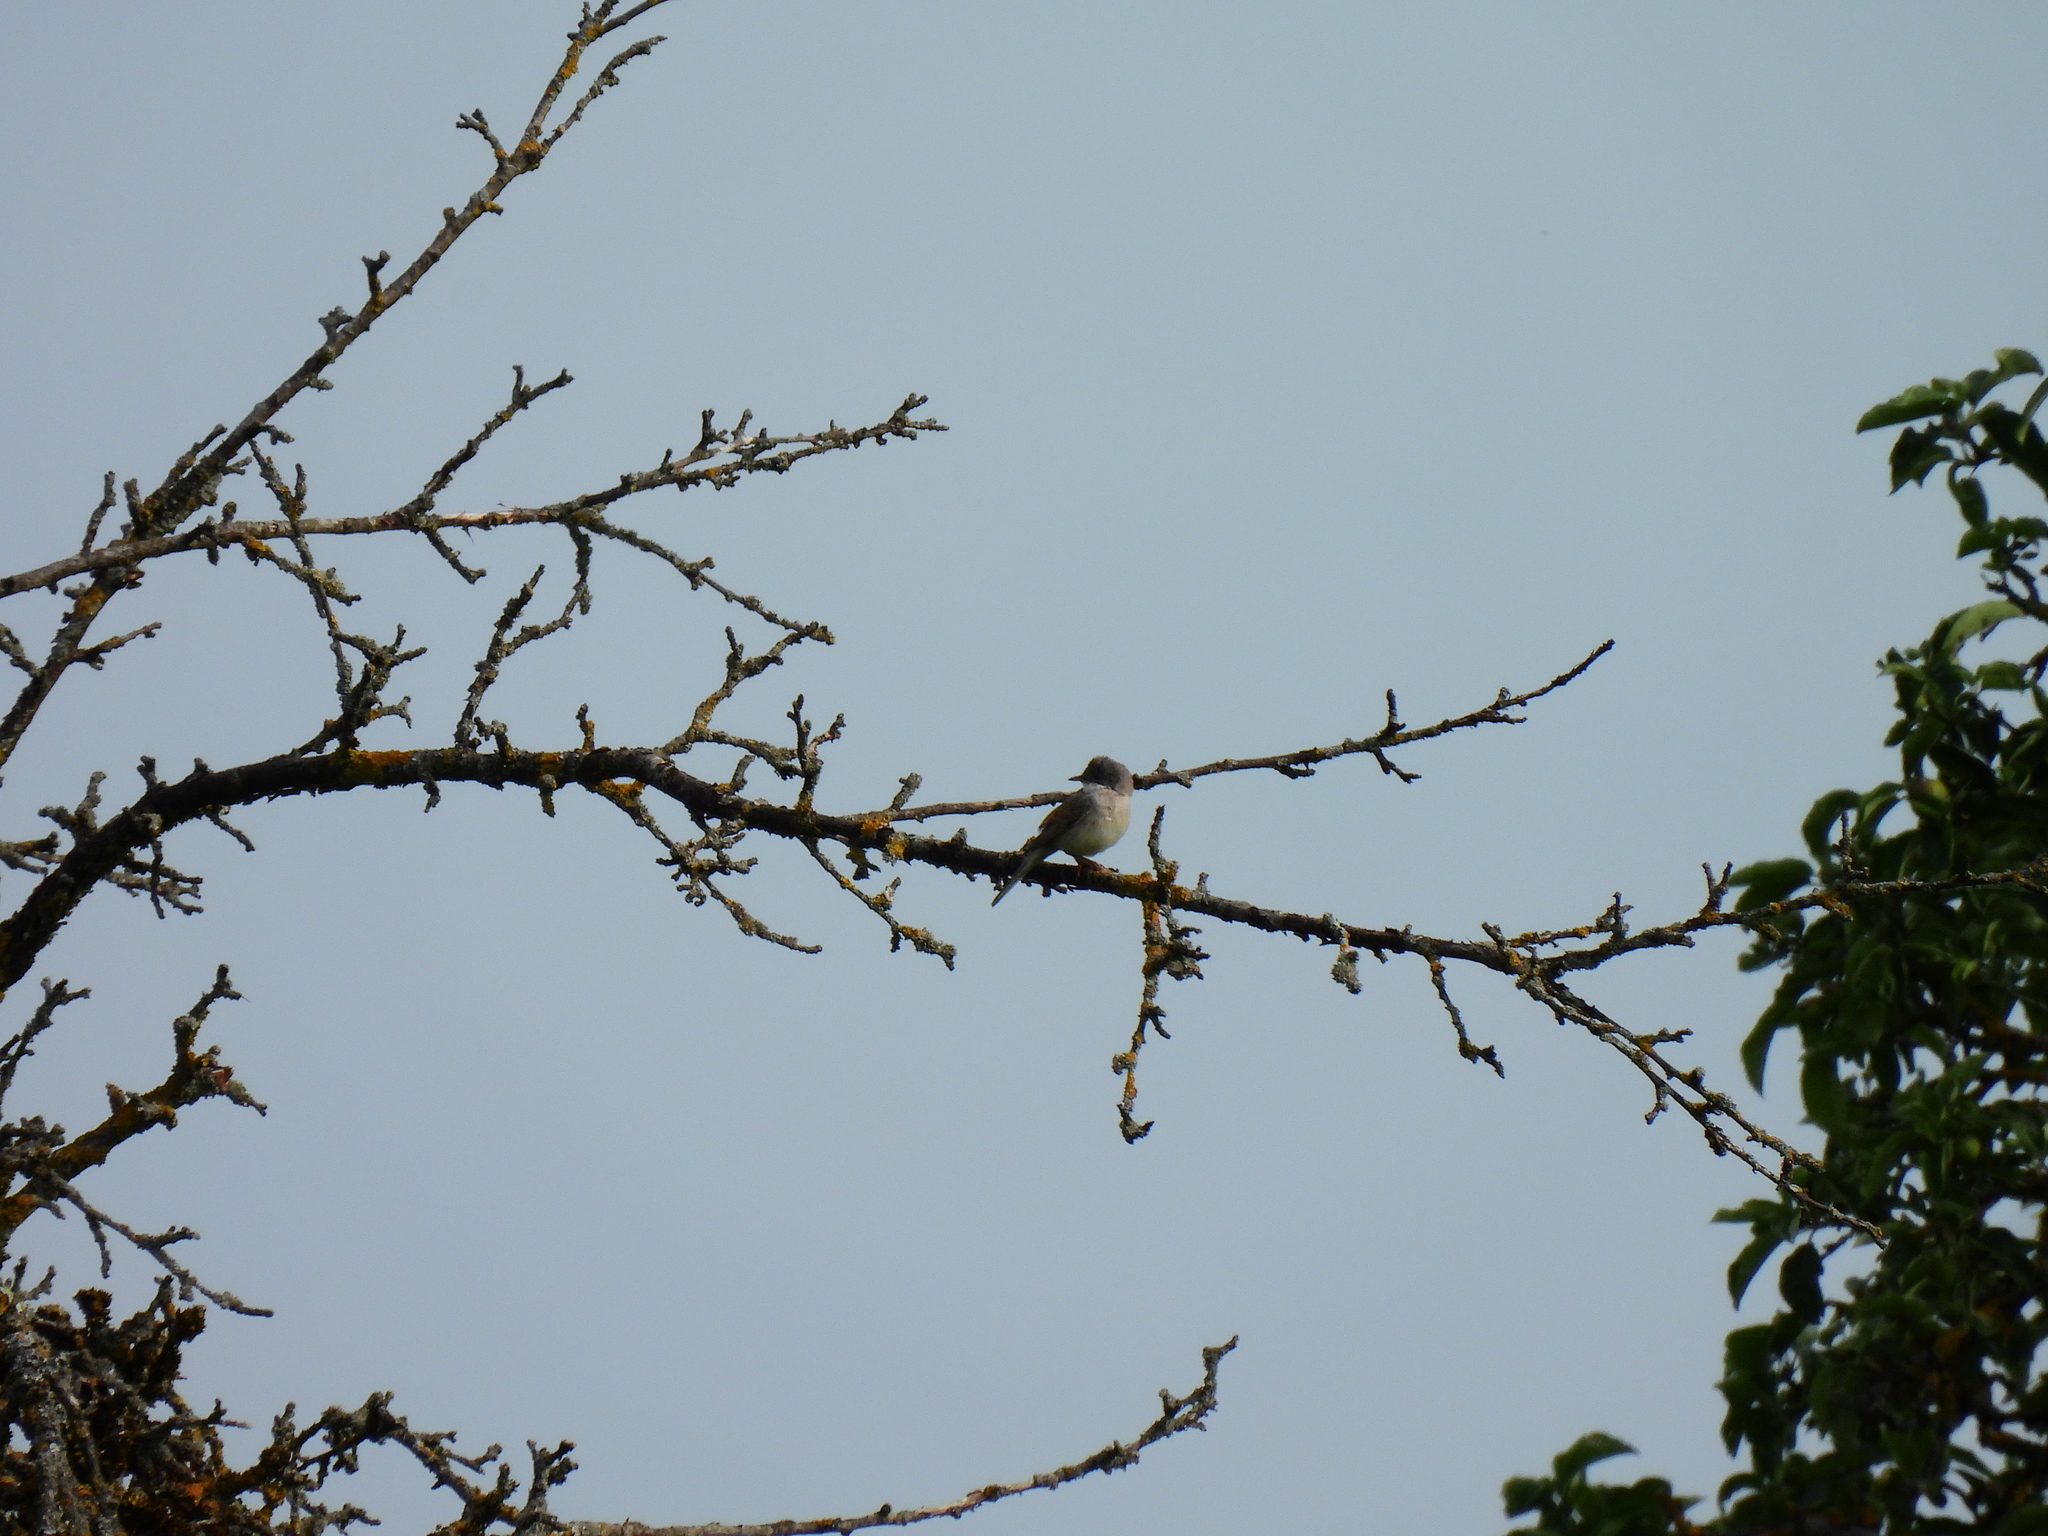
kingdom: Animalia
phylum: Chordata
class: Aves
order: Passeriformes
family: Sylviidae
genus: Sylvia
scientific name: Sylvia communis
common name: Common whitethroat
